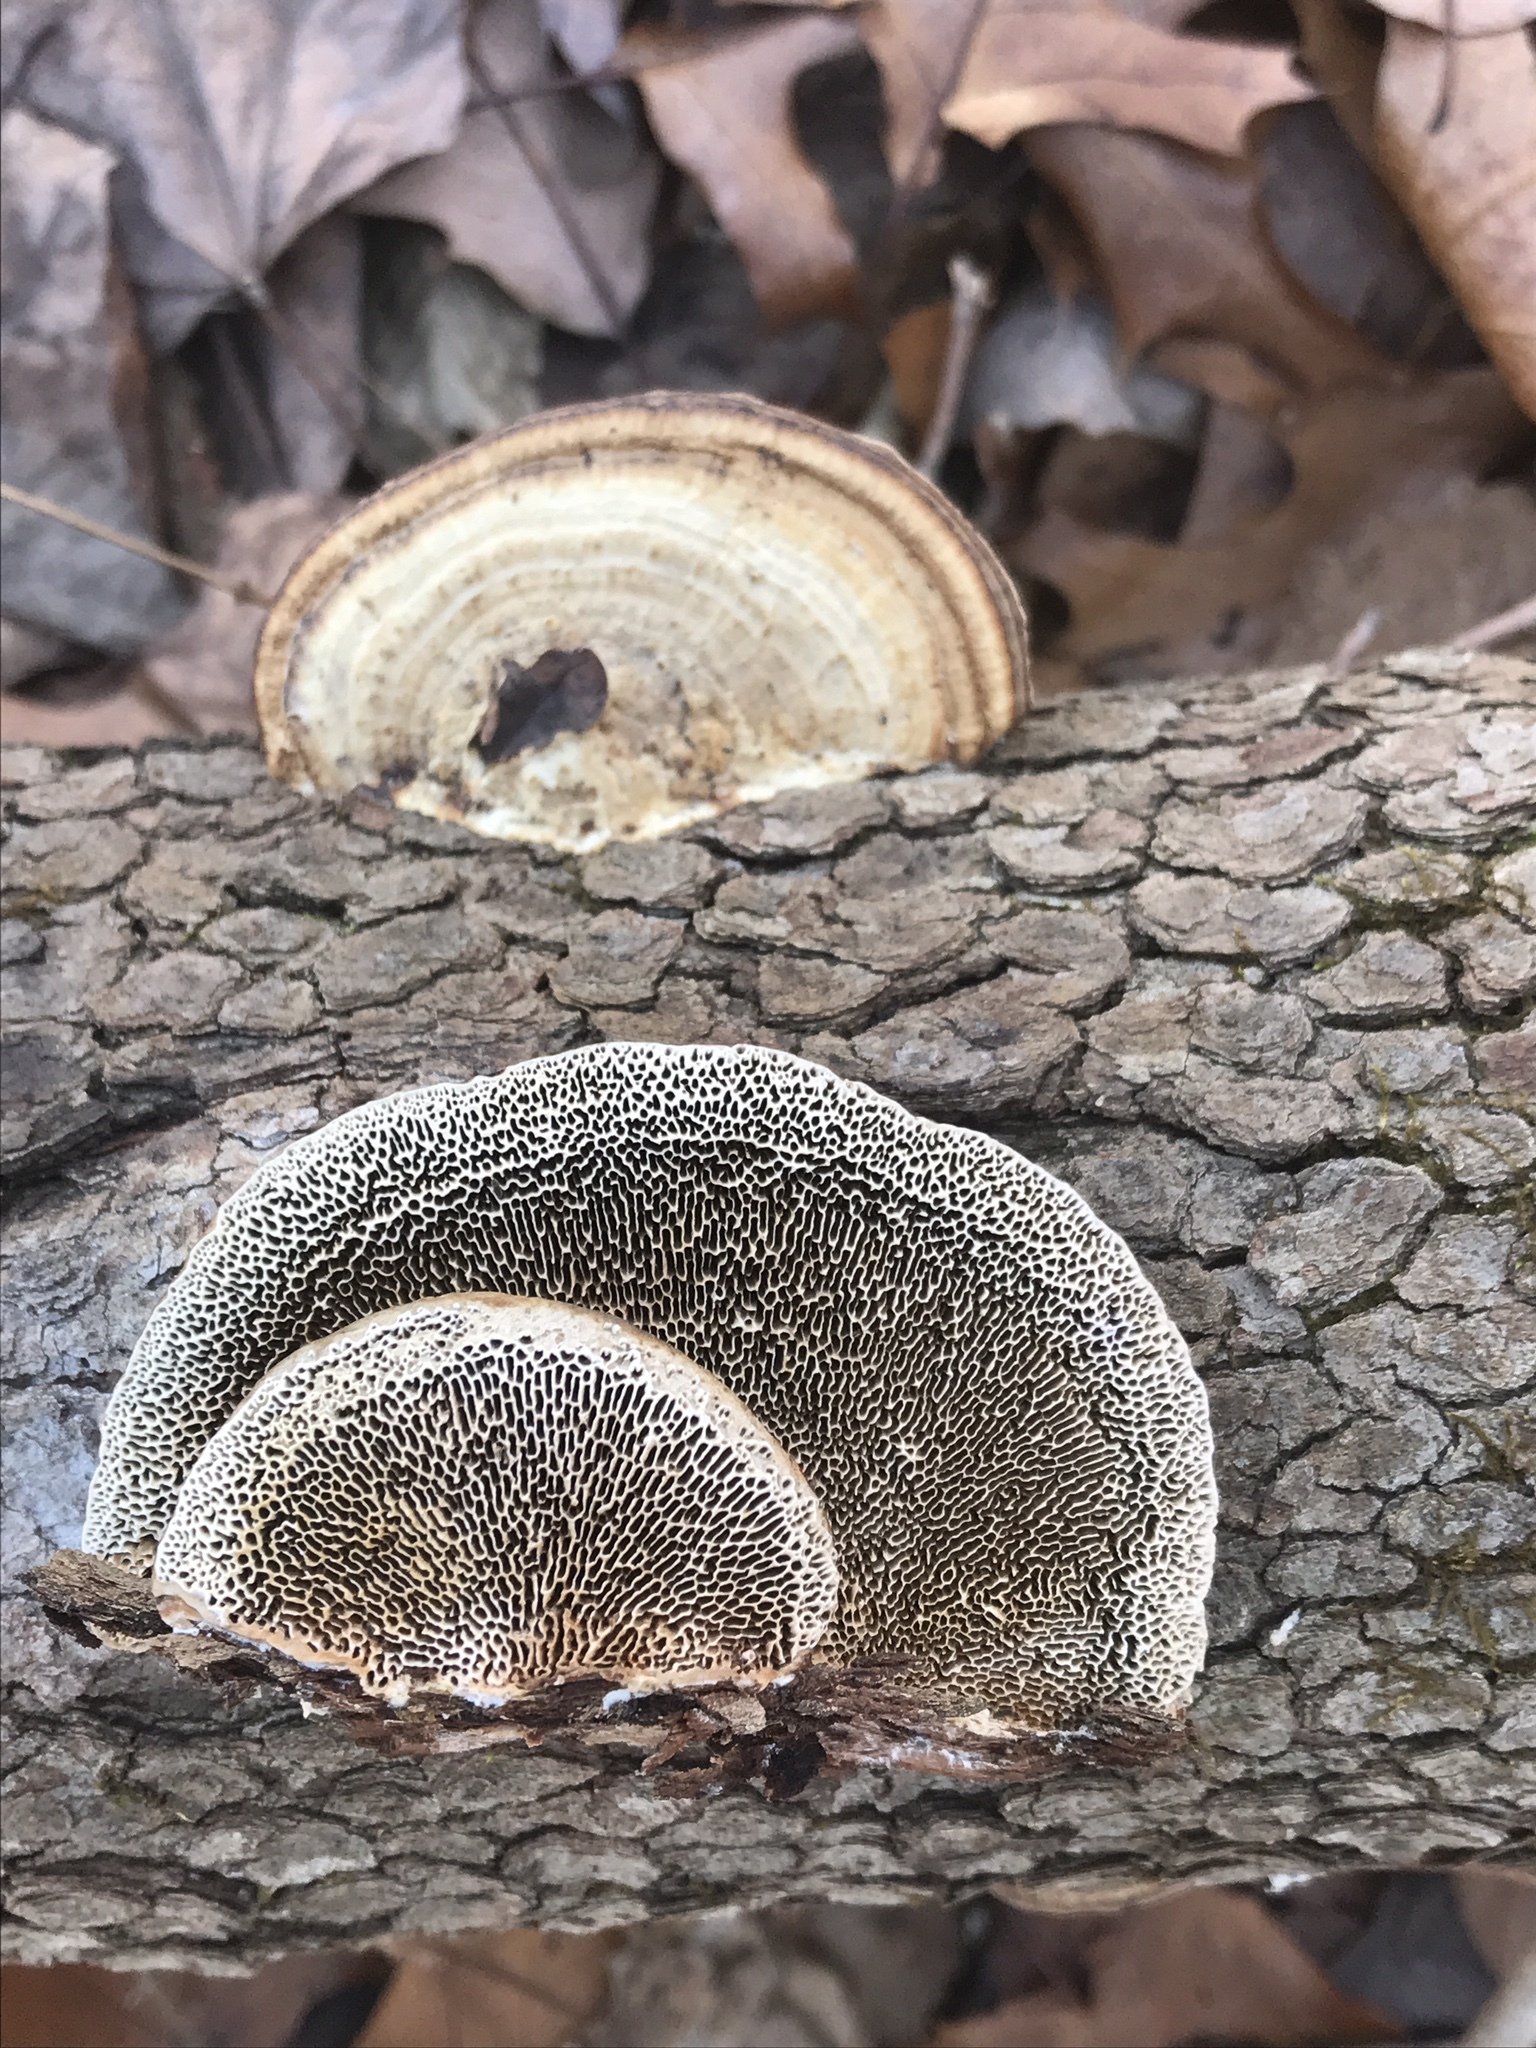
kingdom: Fungi
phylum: Basidiomycota
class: Agaricomycetes
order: Polyporales
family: Polyporaceae
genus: Daedaleopsis
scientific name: Daedaleopsis confragosa
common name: Blushing bracket
